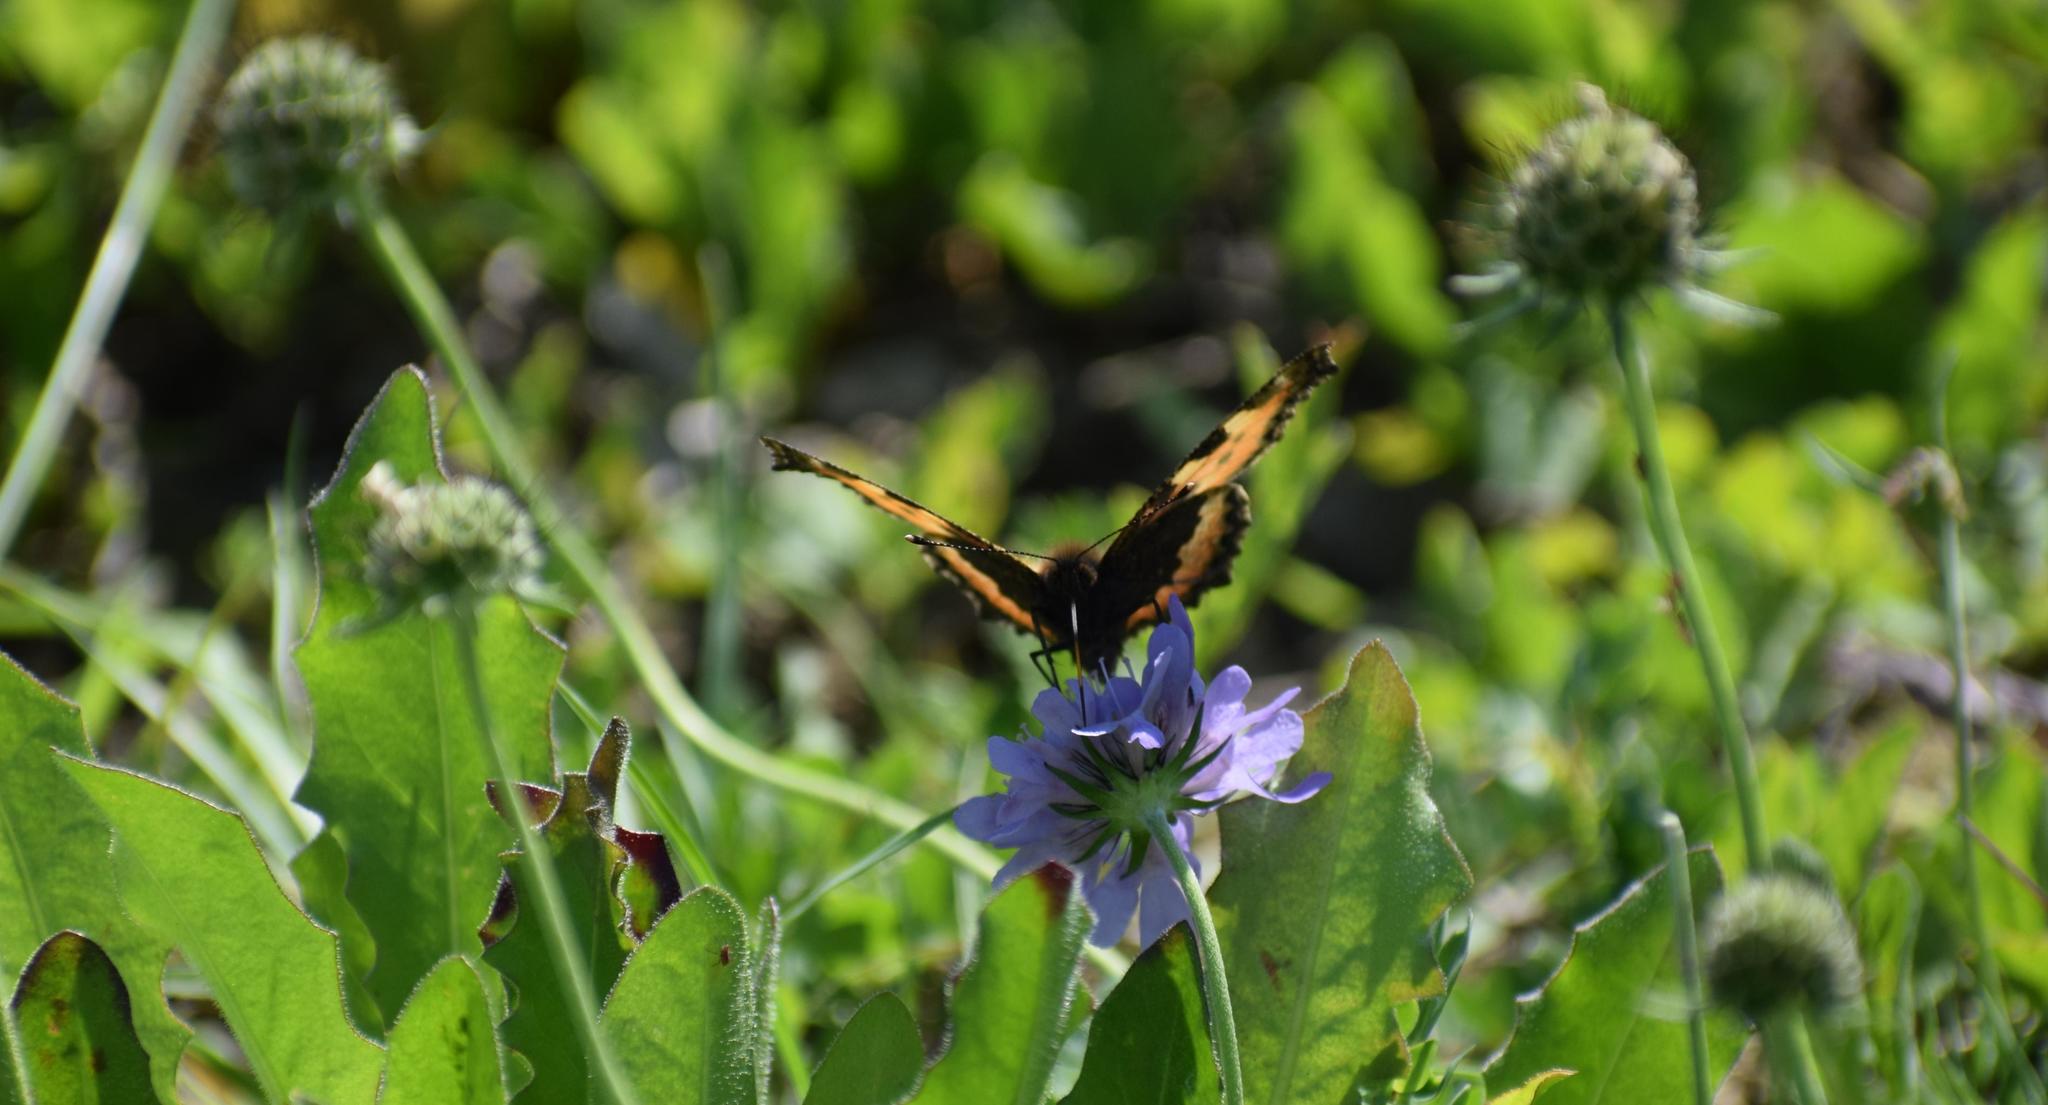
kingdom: Animalia
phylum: Arthropoda
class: Insecta
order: Lepidoptera
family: Nymphalidae
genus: Aglais
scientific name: Aglais urticae
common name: Small tortoiseshell
